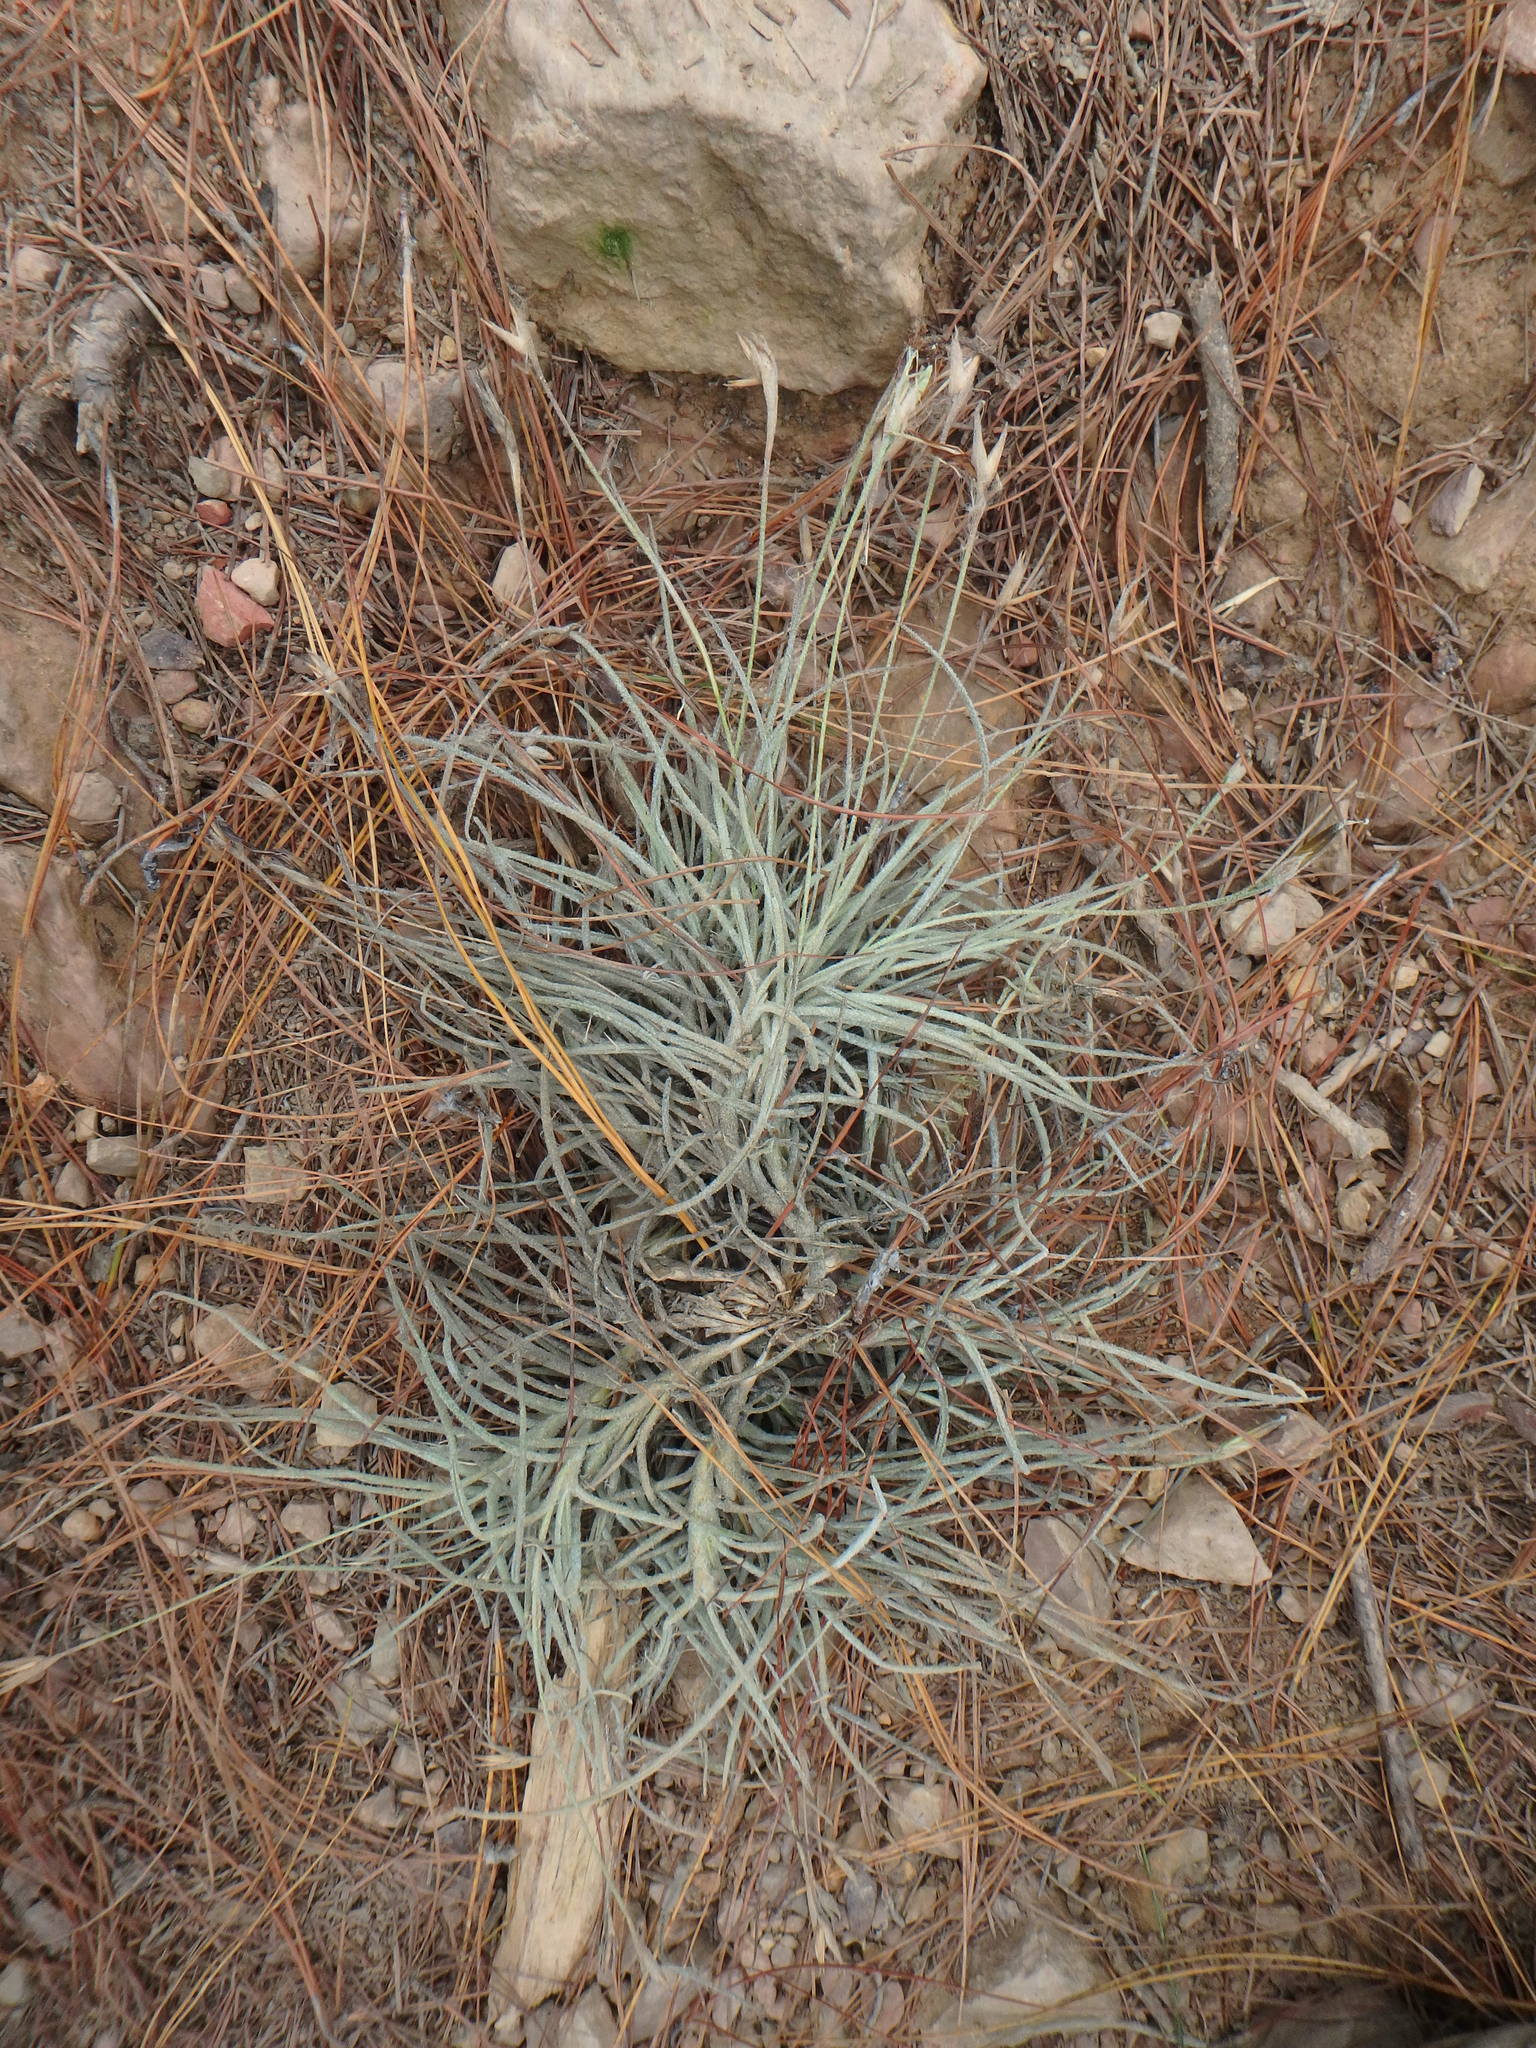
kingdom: Plantae
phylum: Tracheophyta
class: Liliopsida
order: Poales
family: Bromeliaceae
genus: Tillandsia
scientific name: Tillandsia recurvata
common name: Small ballmoss
